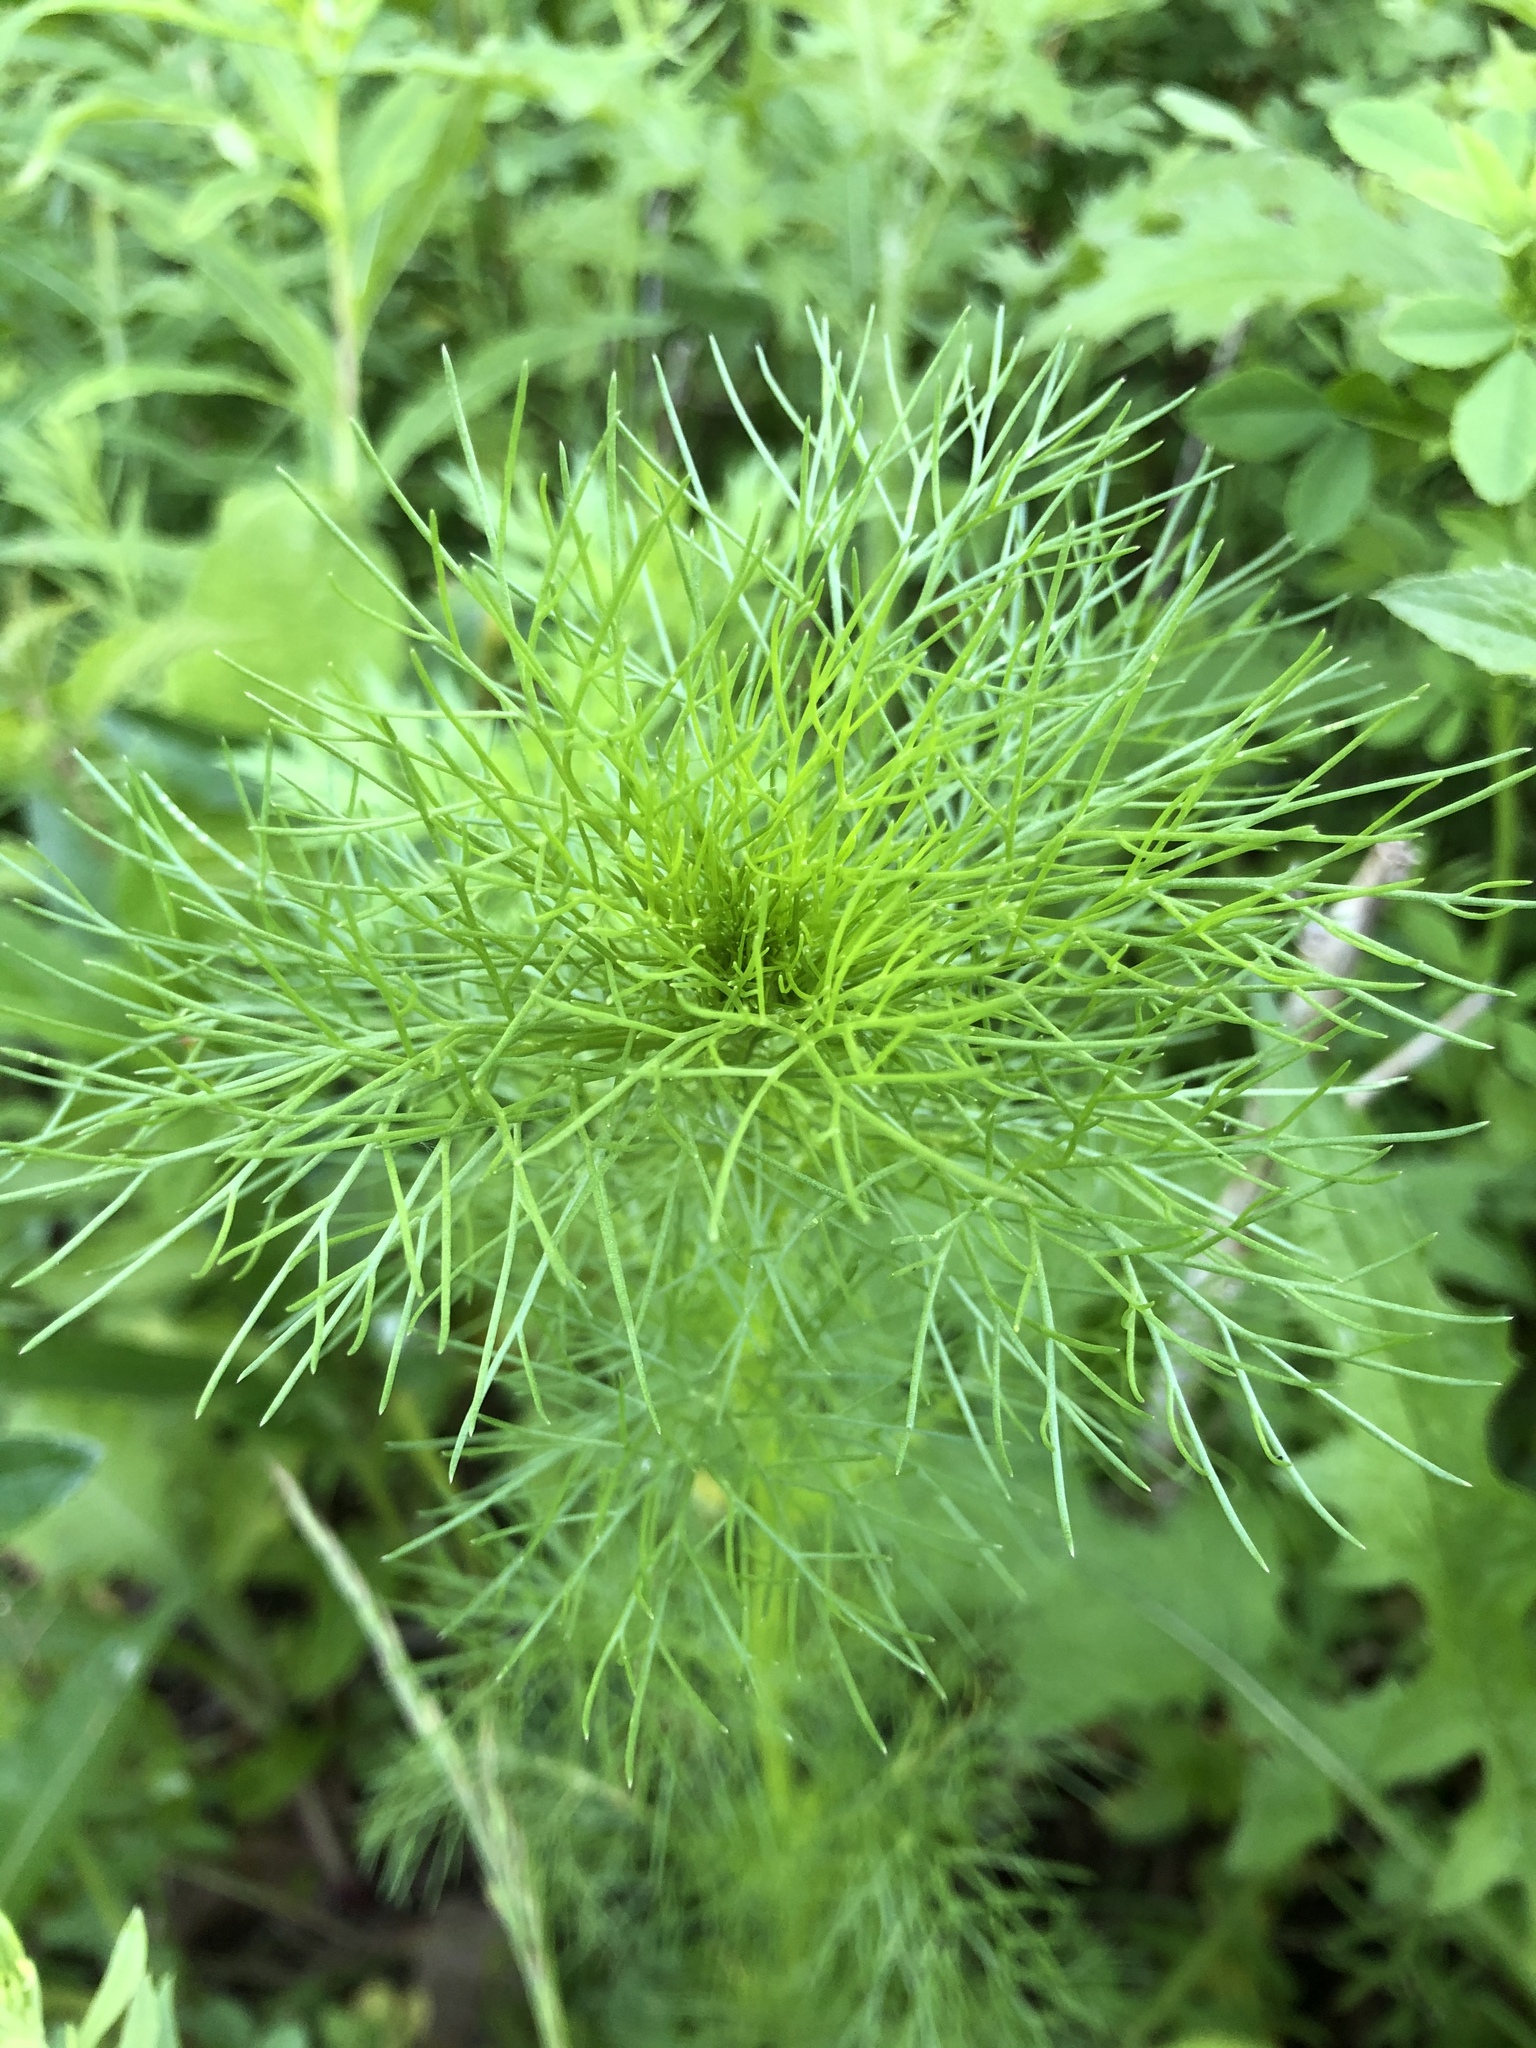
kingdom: Plantae
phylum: Tracheophyta
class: Magnoliopsida
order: Asterales
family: Asteraceae
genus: Tripleurospermum
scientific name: Tripleurospermum inodorum
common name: Scentless mayweed
